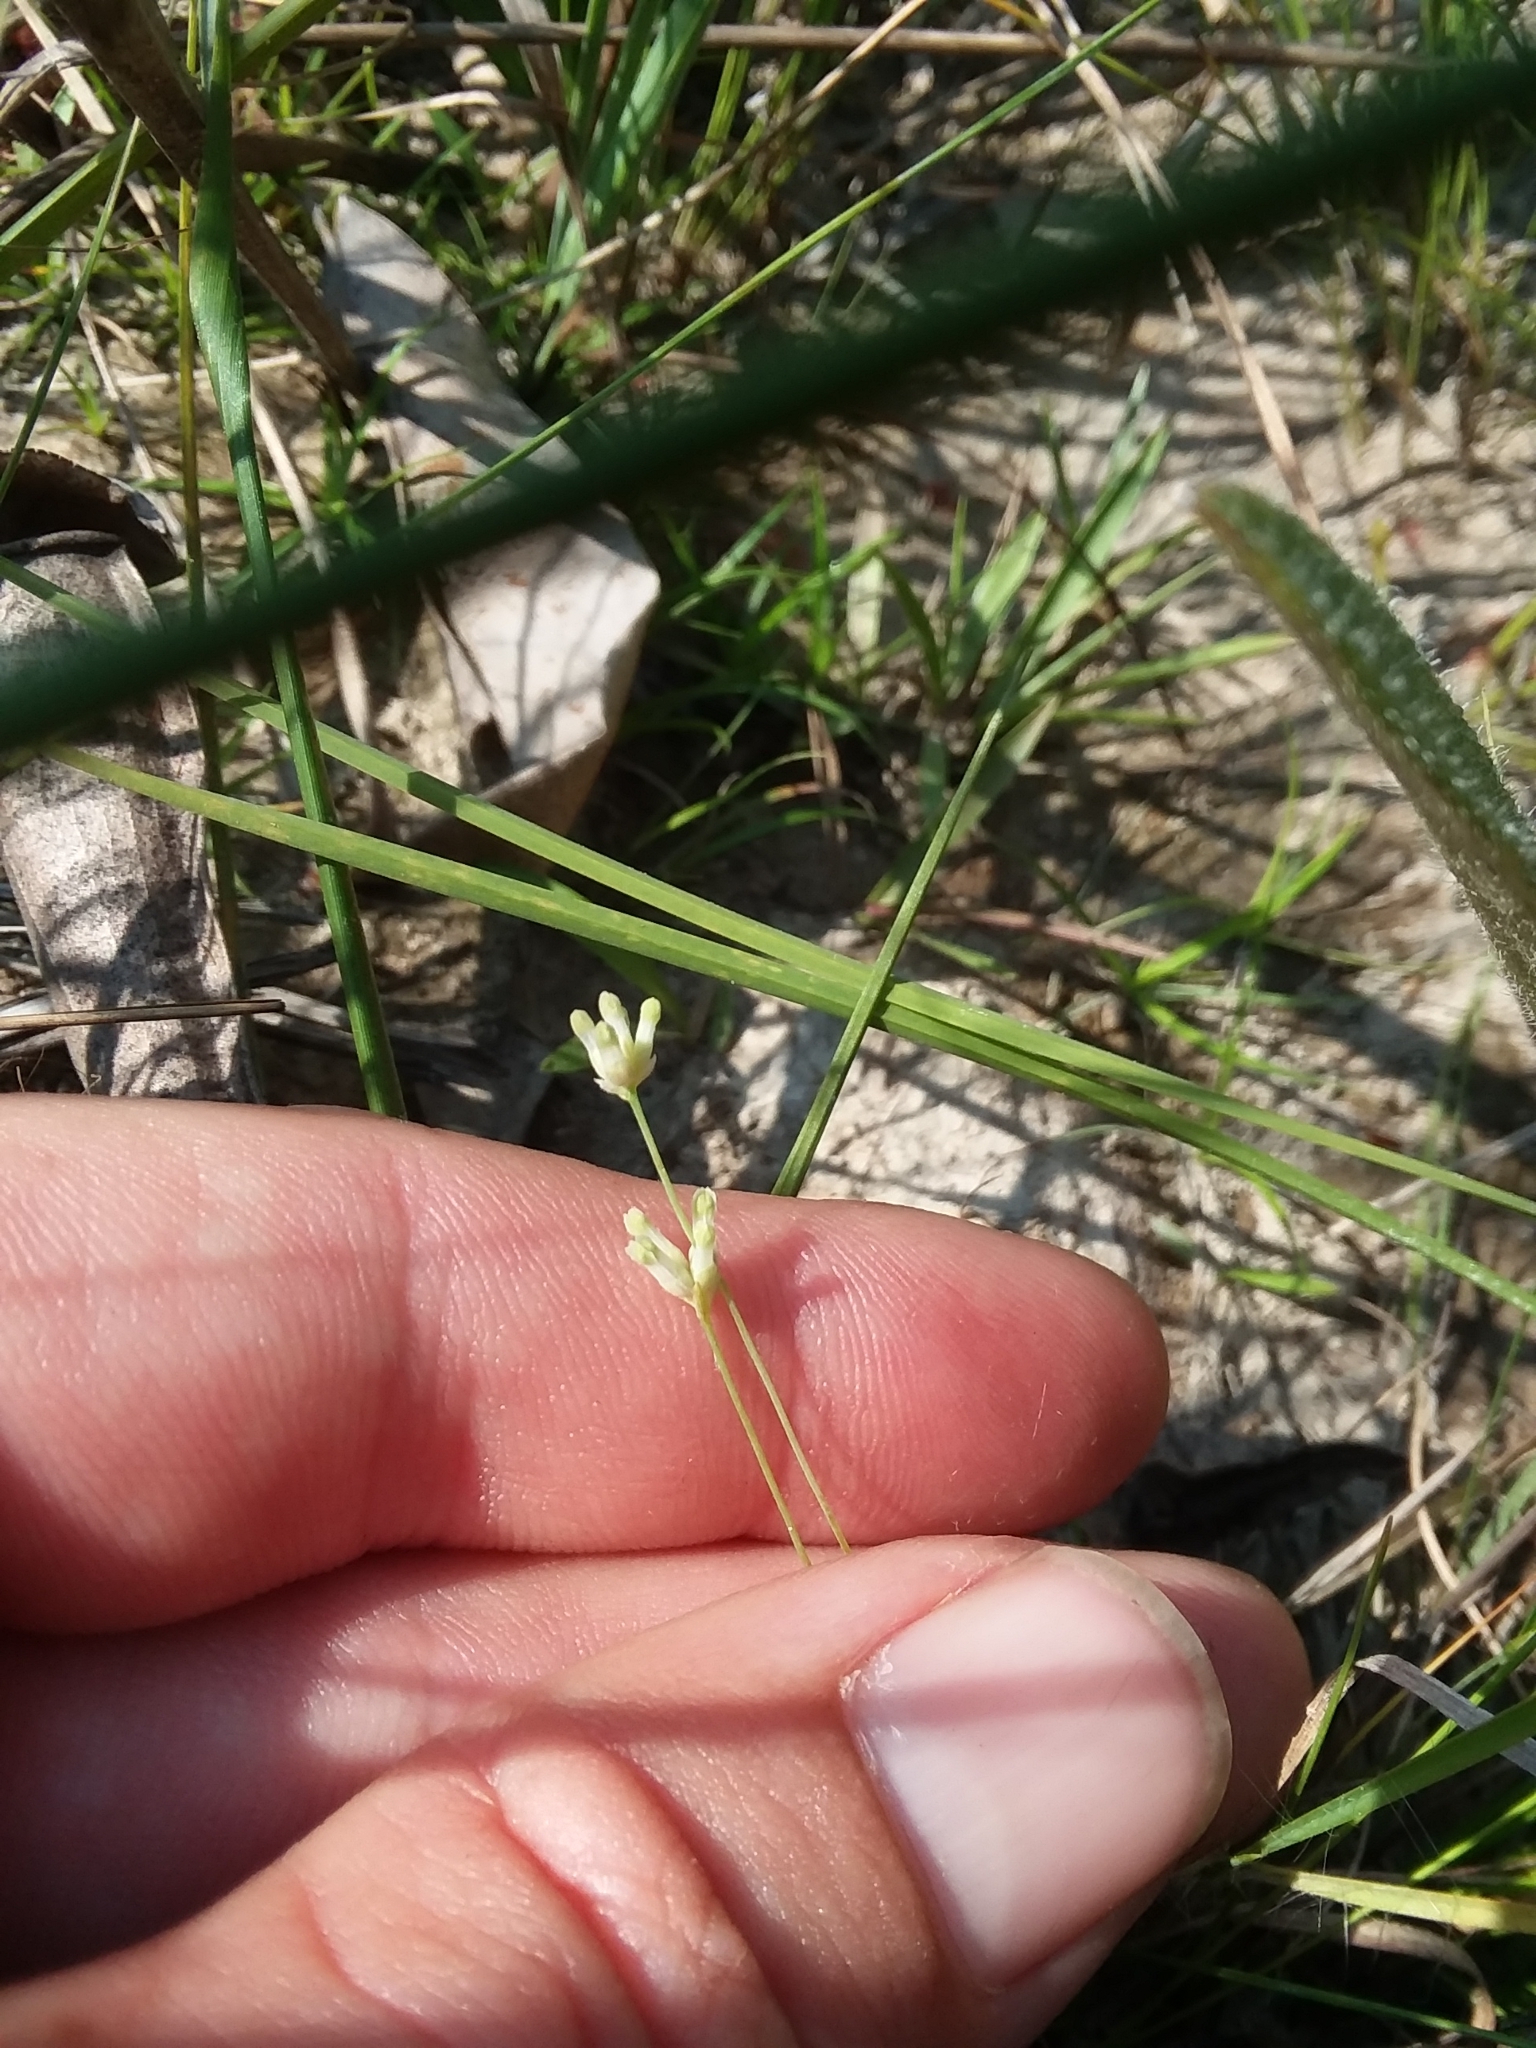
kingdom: Plantae
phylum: Tracheophyta
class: Liliopsida
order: Dioscoreales
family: Burmanniaceae
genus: Burmannia
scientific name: Burmannia capitata
